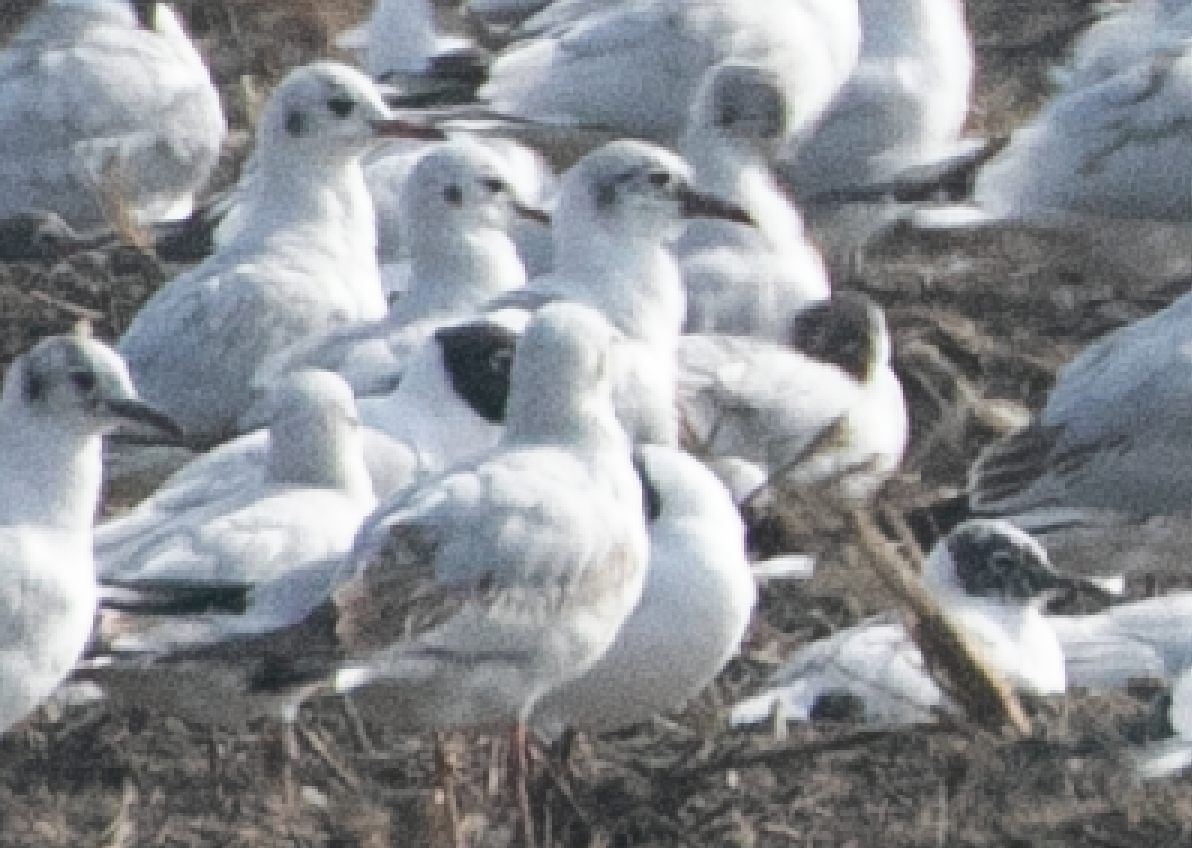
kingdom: Animalia
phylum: Chordata
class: Aves
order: Charadriiformes
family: Laridae
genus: Chroicocephalus
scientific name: Chroicocephalus ridibundus
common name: Black-headed gull
